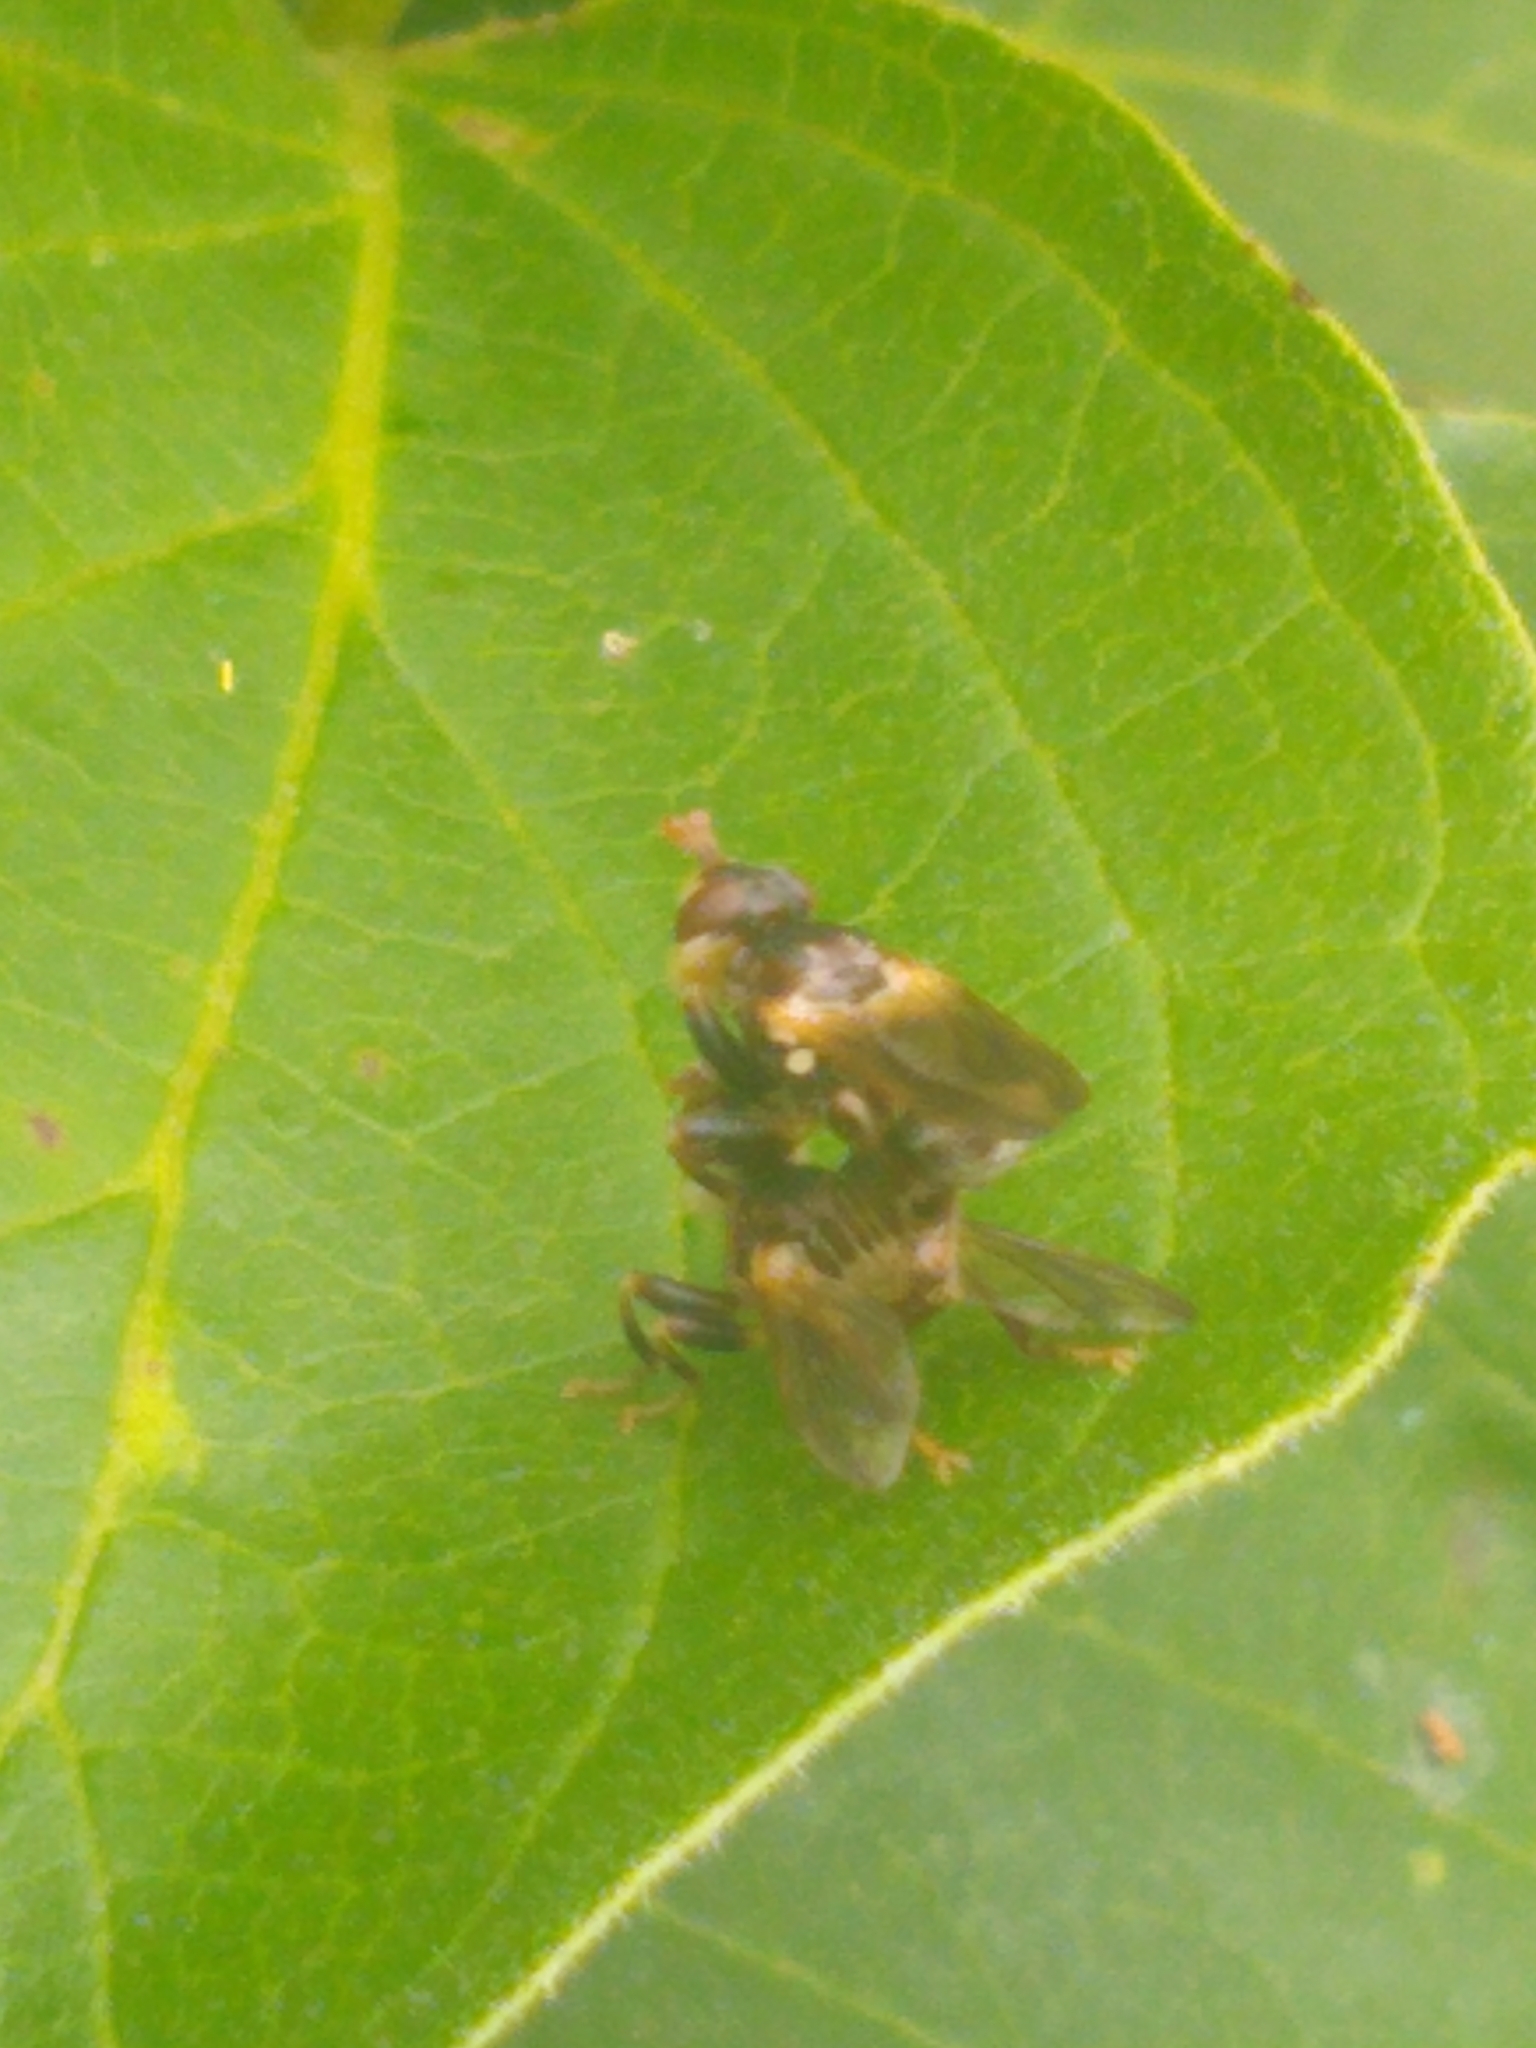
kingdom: Animalia
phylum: Arthropoda
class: Insecta
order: Diptera
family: Conopidae
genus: Myopa
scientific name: Myopa vesiculosa
